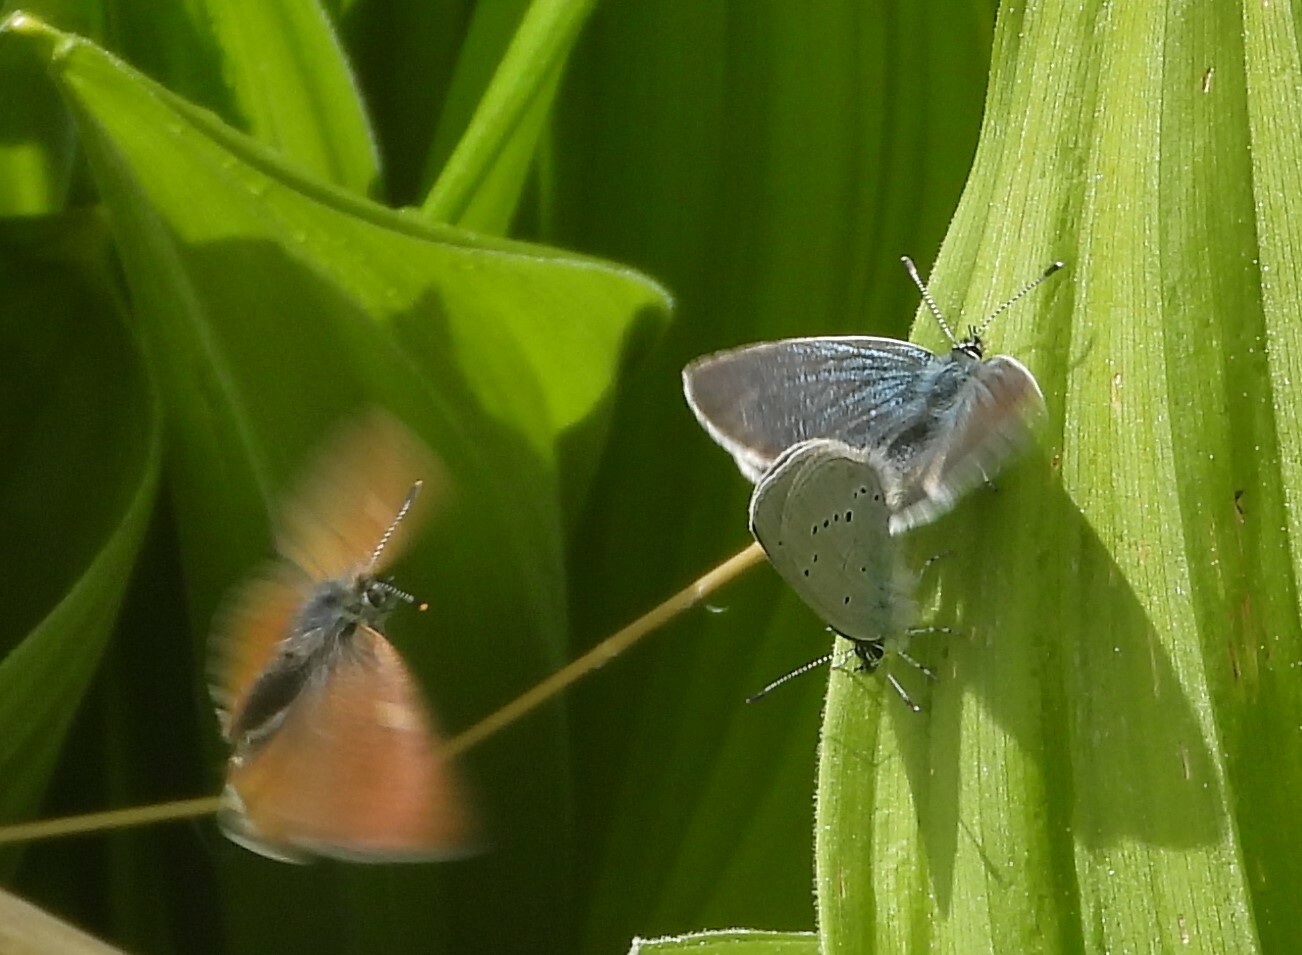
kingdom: Animalia
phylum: Arthropoda
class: Insecta
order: Lepidoptera
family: Lycaenidae
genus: Cupido
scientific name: Cupido minimus
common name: Small blue
